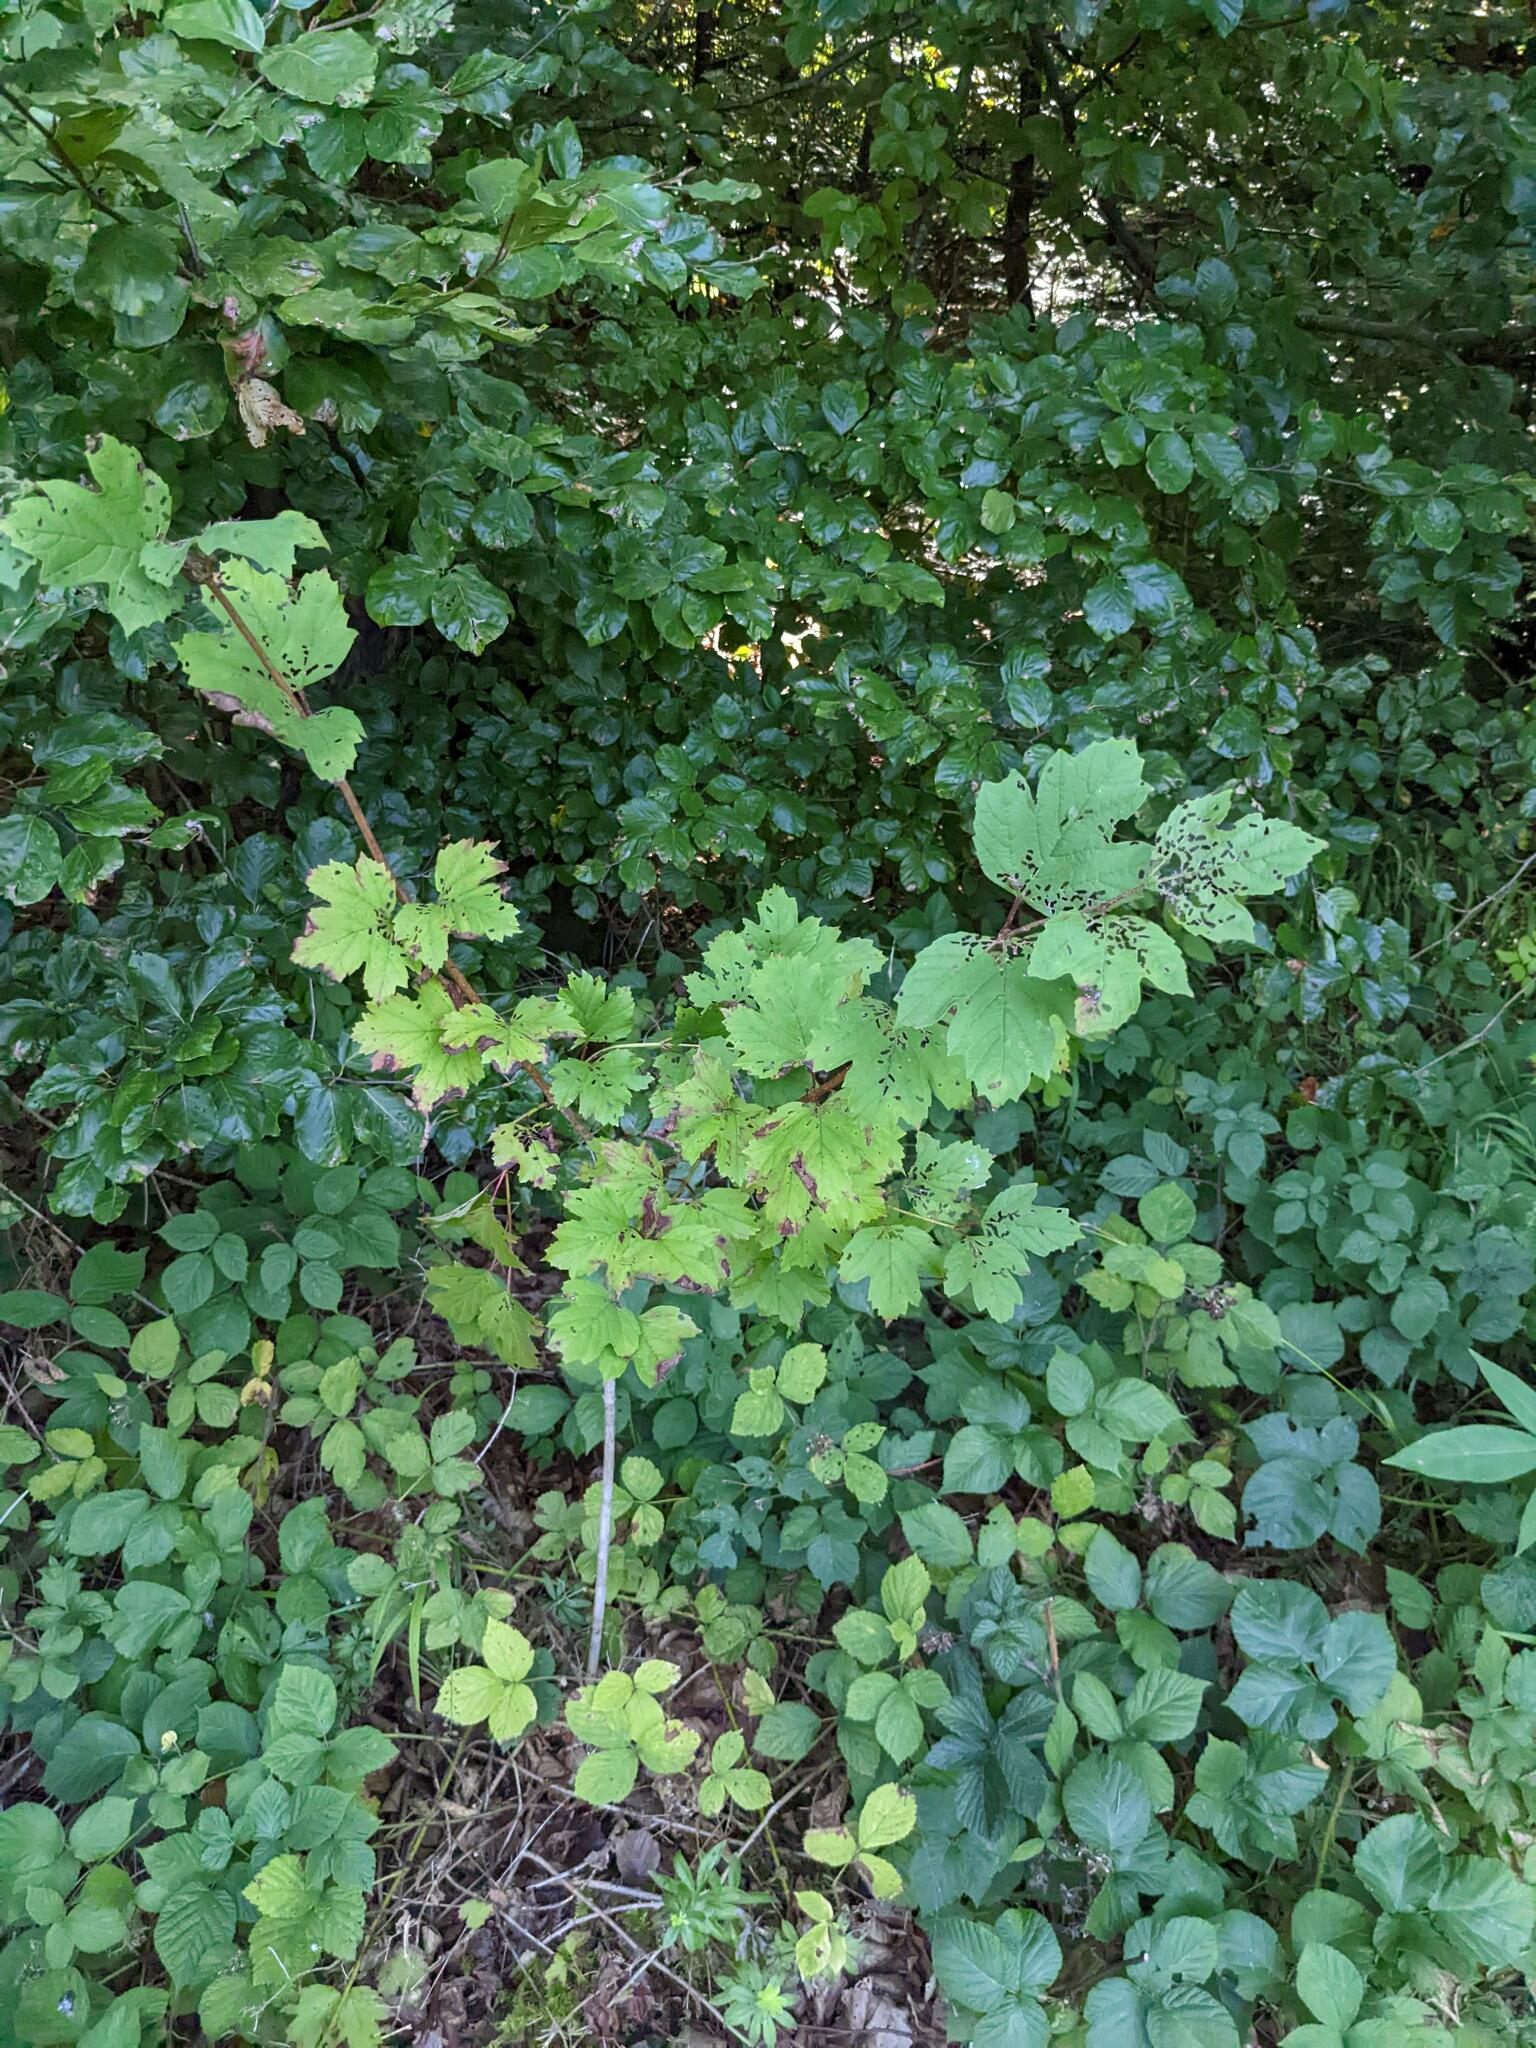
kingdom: Plantae
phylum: Tracheophyta
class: Magnoliopsida
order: Sapindales
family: Sapindaceae
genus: Acer
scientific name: Acer pseudoplatanus
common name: Sycamore
